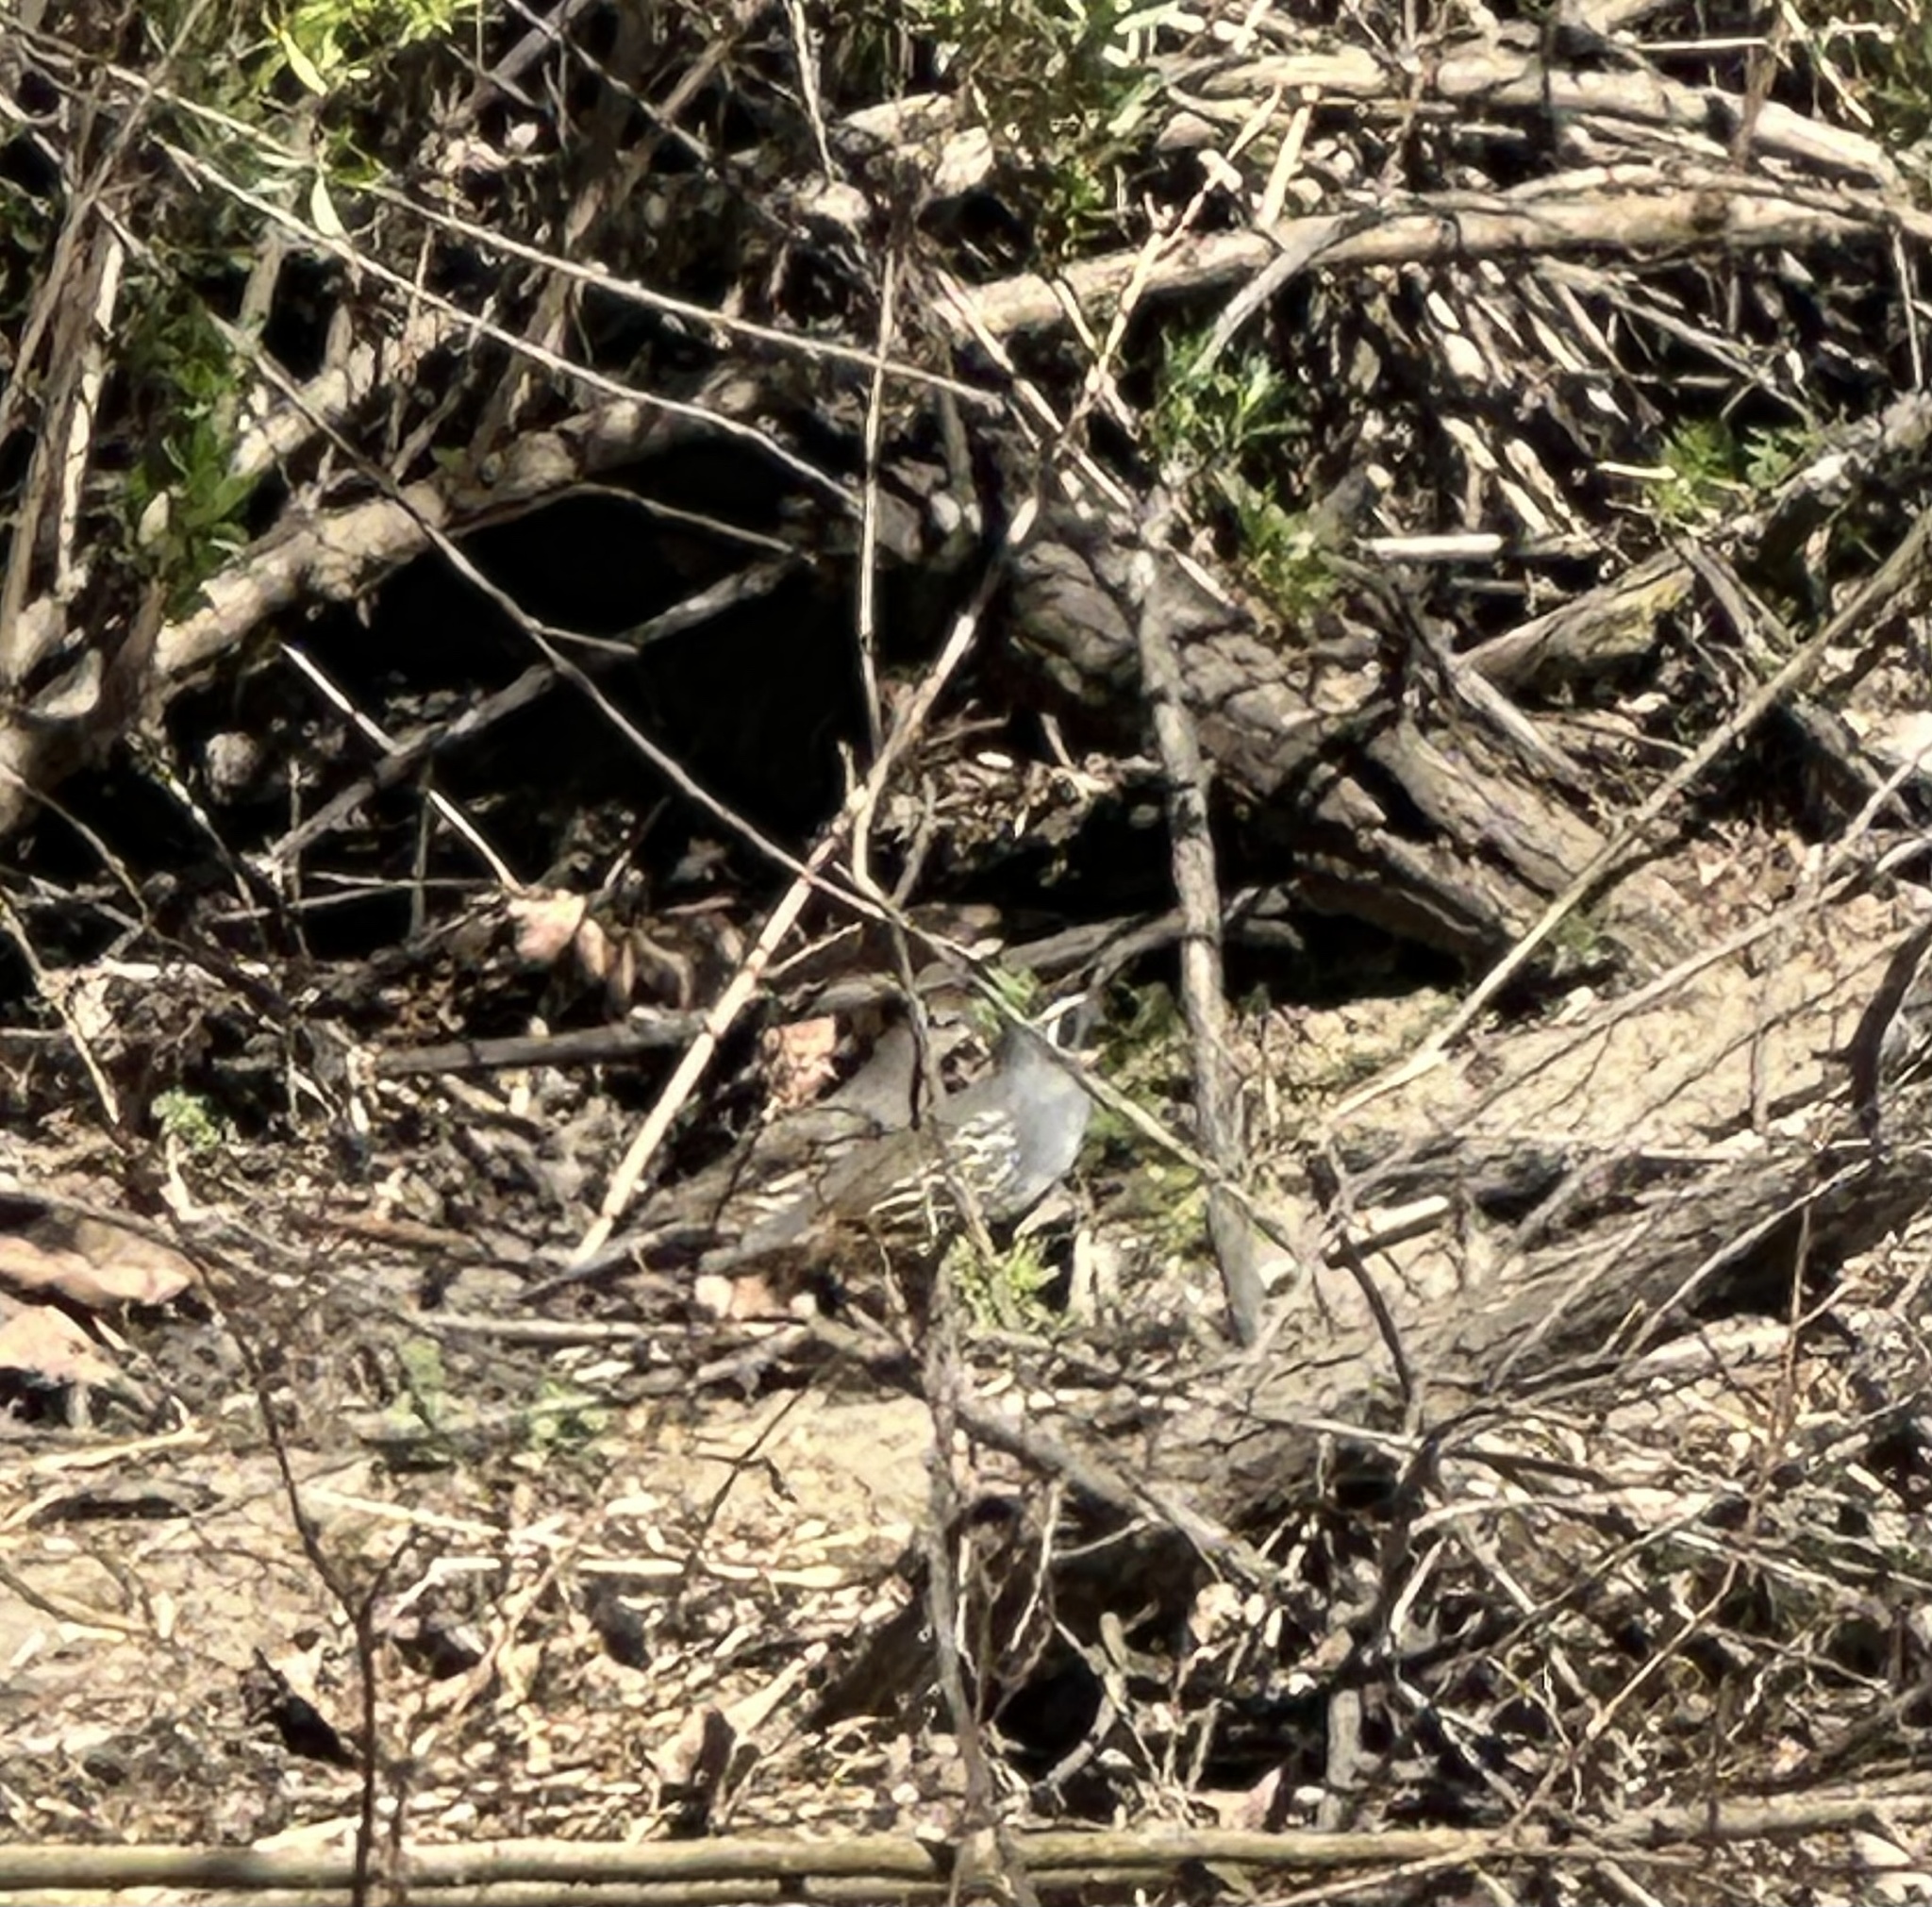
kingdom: Animalia
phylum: Chordata
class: Aves
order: Galliformes
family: Odontophoridae
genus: Callipepla
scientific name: Callipepla californica
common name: California quail
